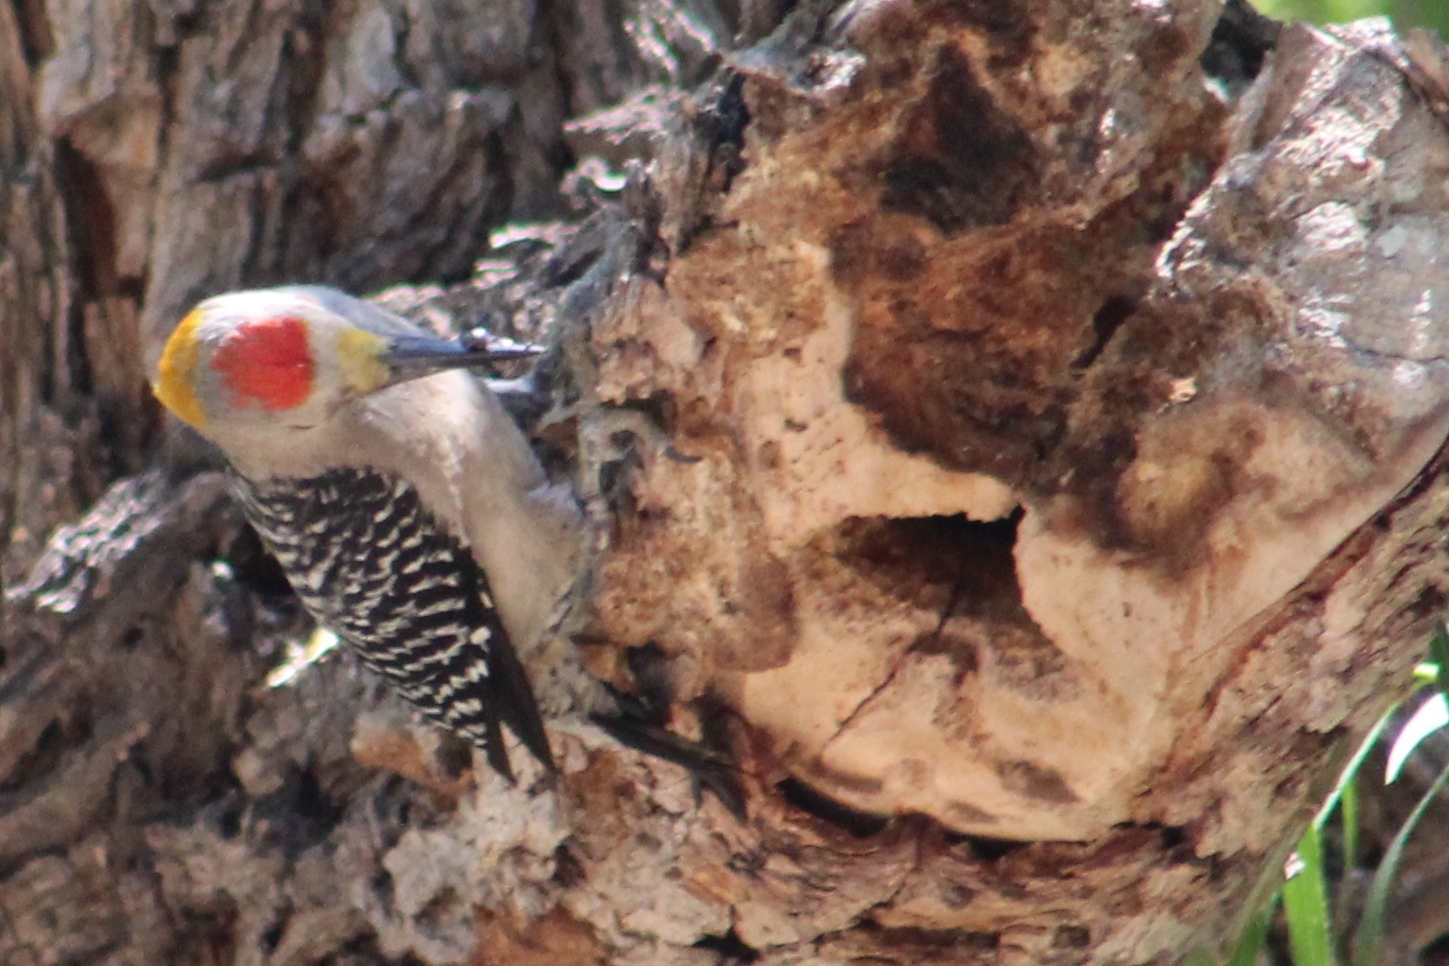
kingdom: Animalia
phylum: Chordata
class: Aves
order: Piciformes
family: Picidae
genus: Melanerpes
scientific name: Melanerpes aurifrons
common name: Golden-fronted woodpecker
